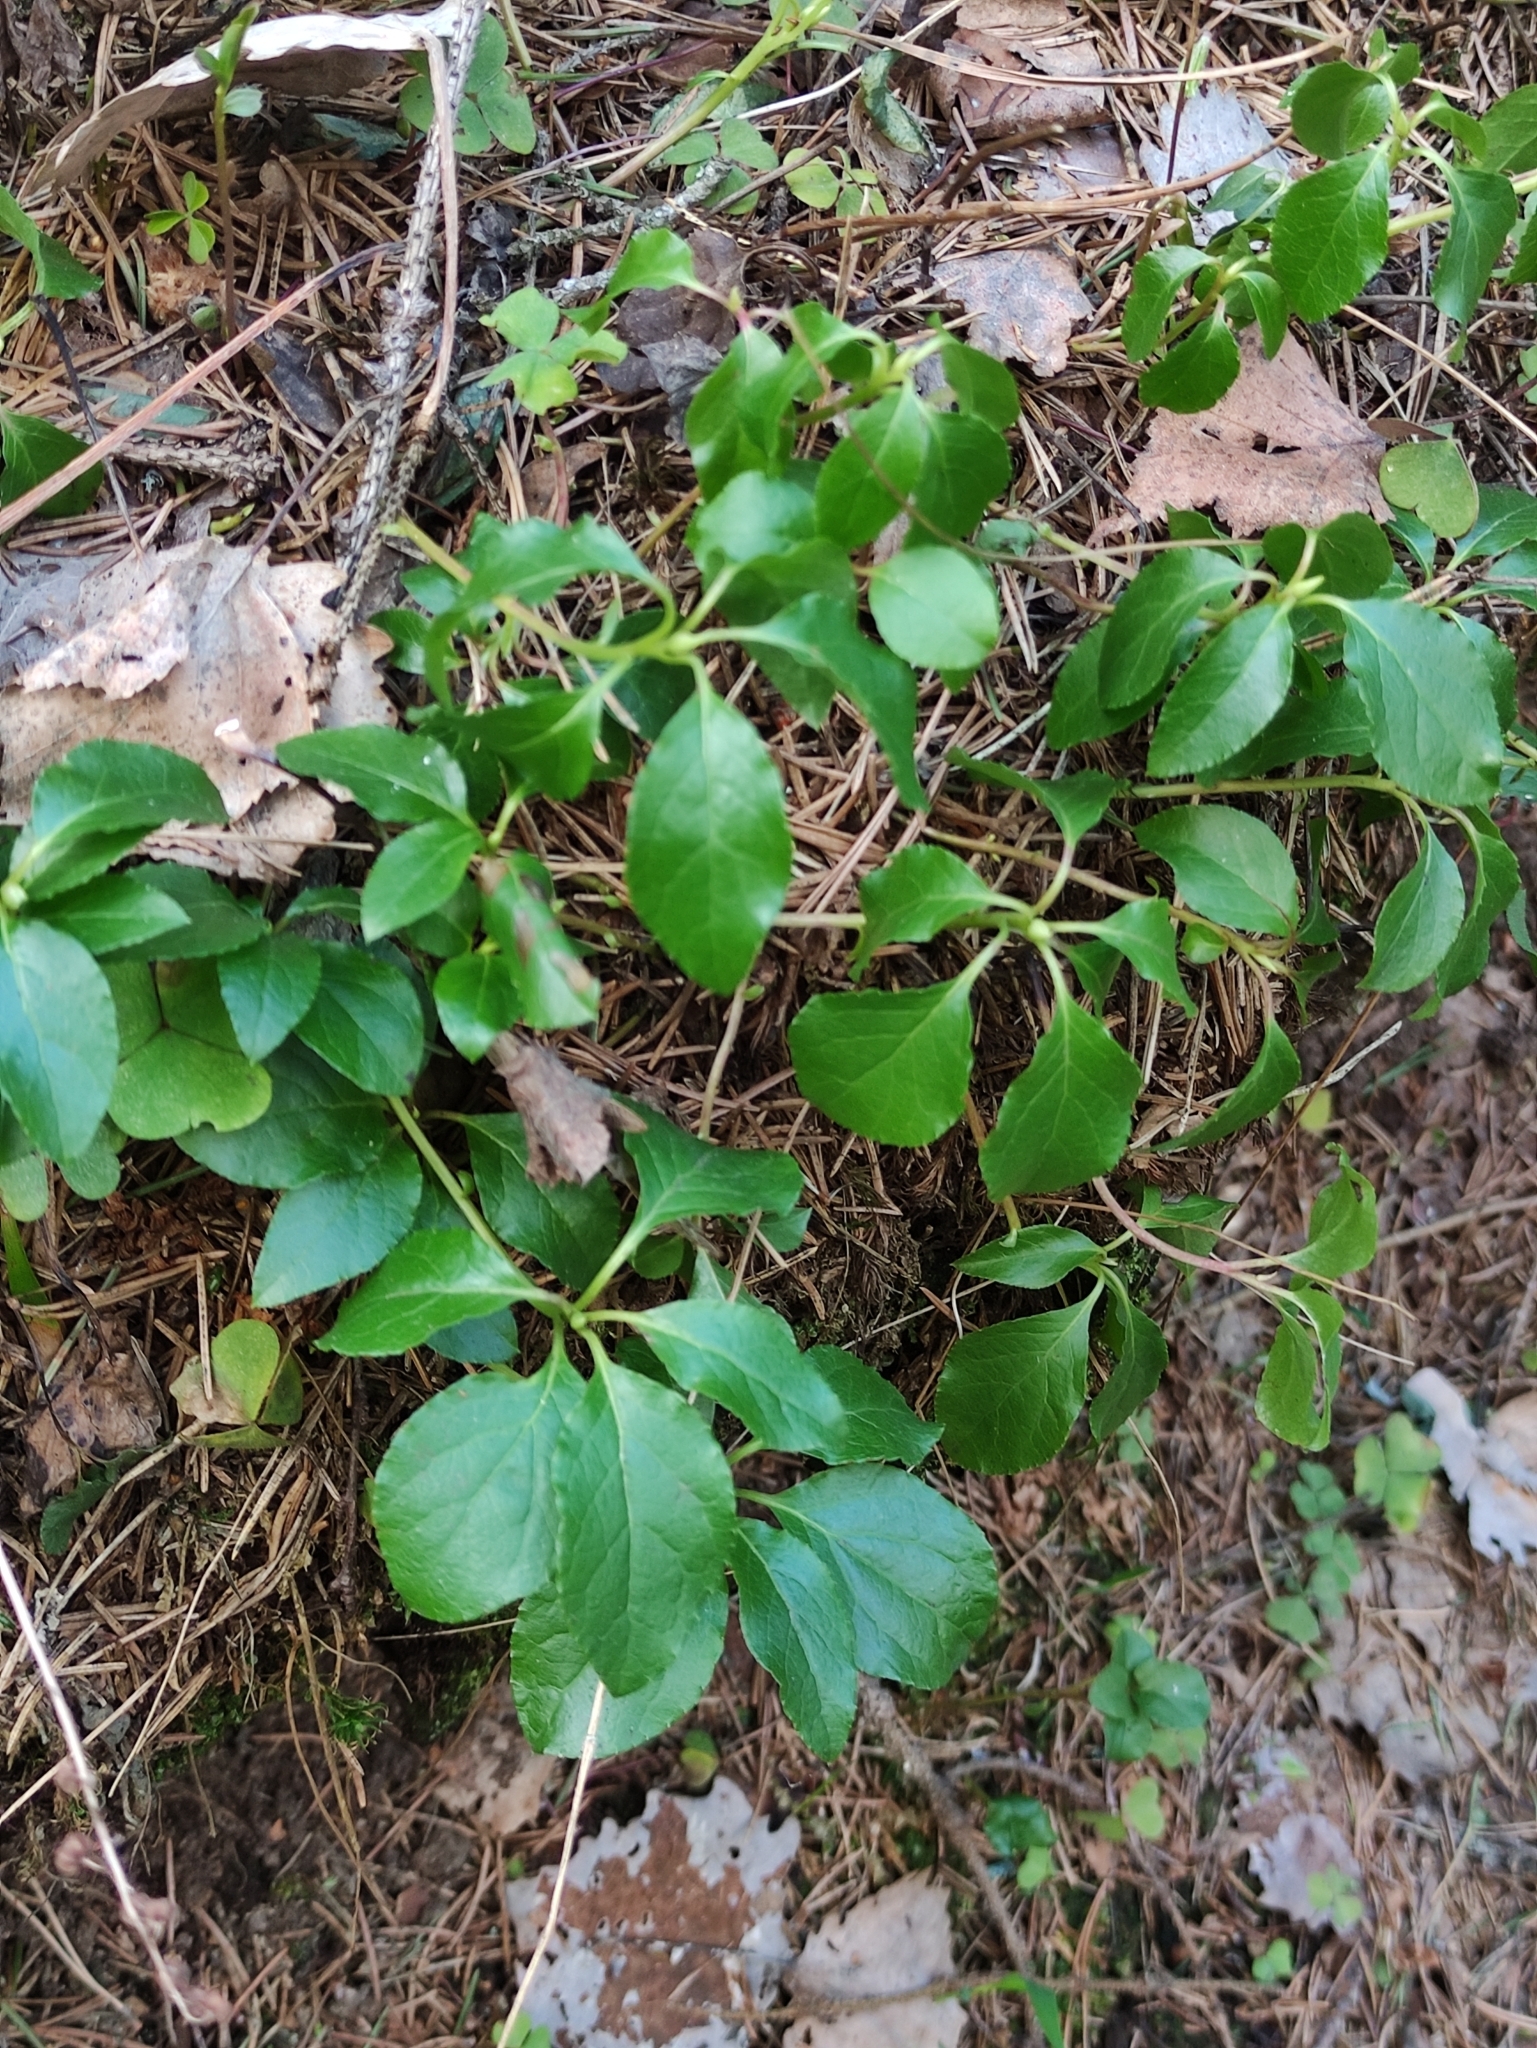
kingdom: Plantae
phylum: Tracheophyta
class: Magnoliopsida
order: Ericales
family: Ericaceae
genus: Orthilia
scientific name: Orthilia secunda
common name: One-sided orthilia
